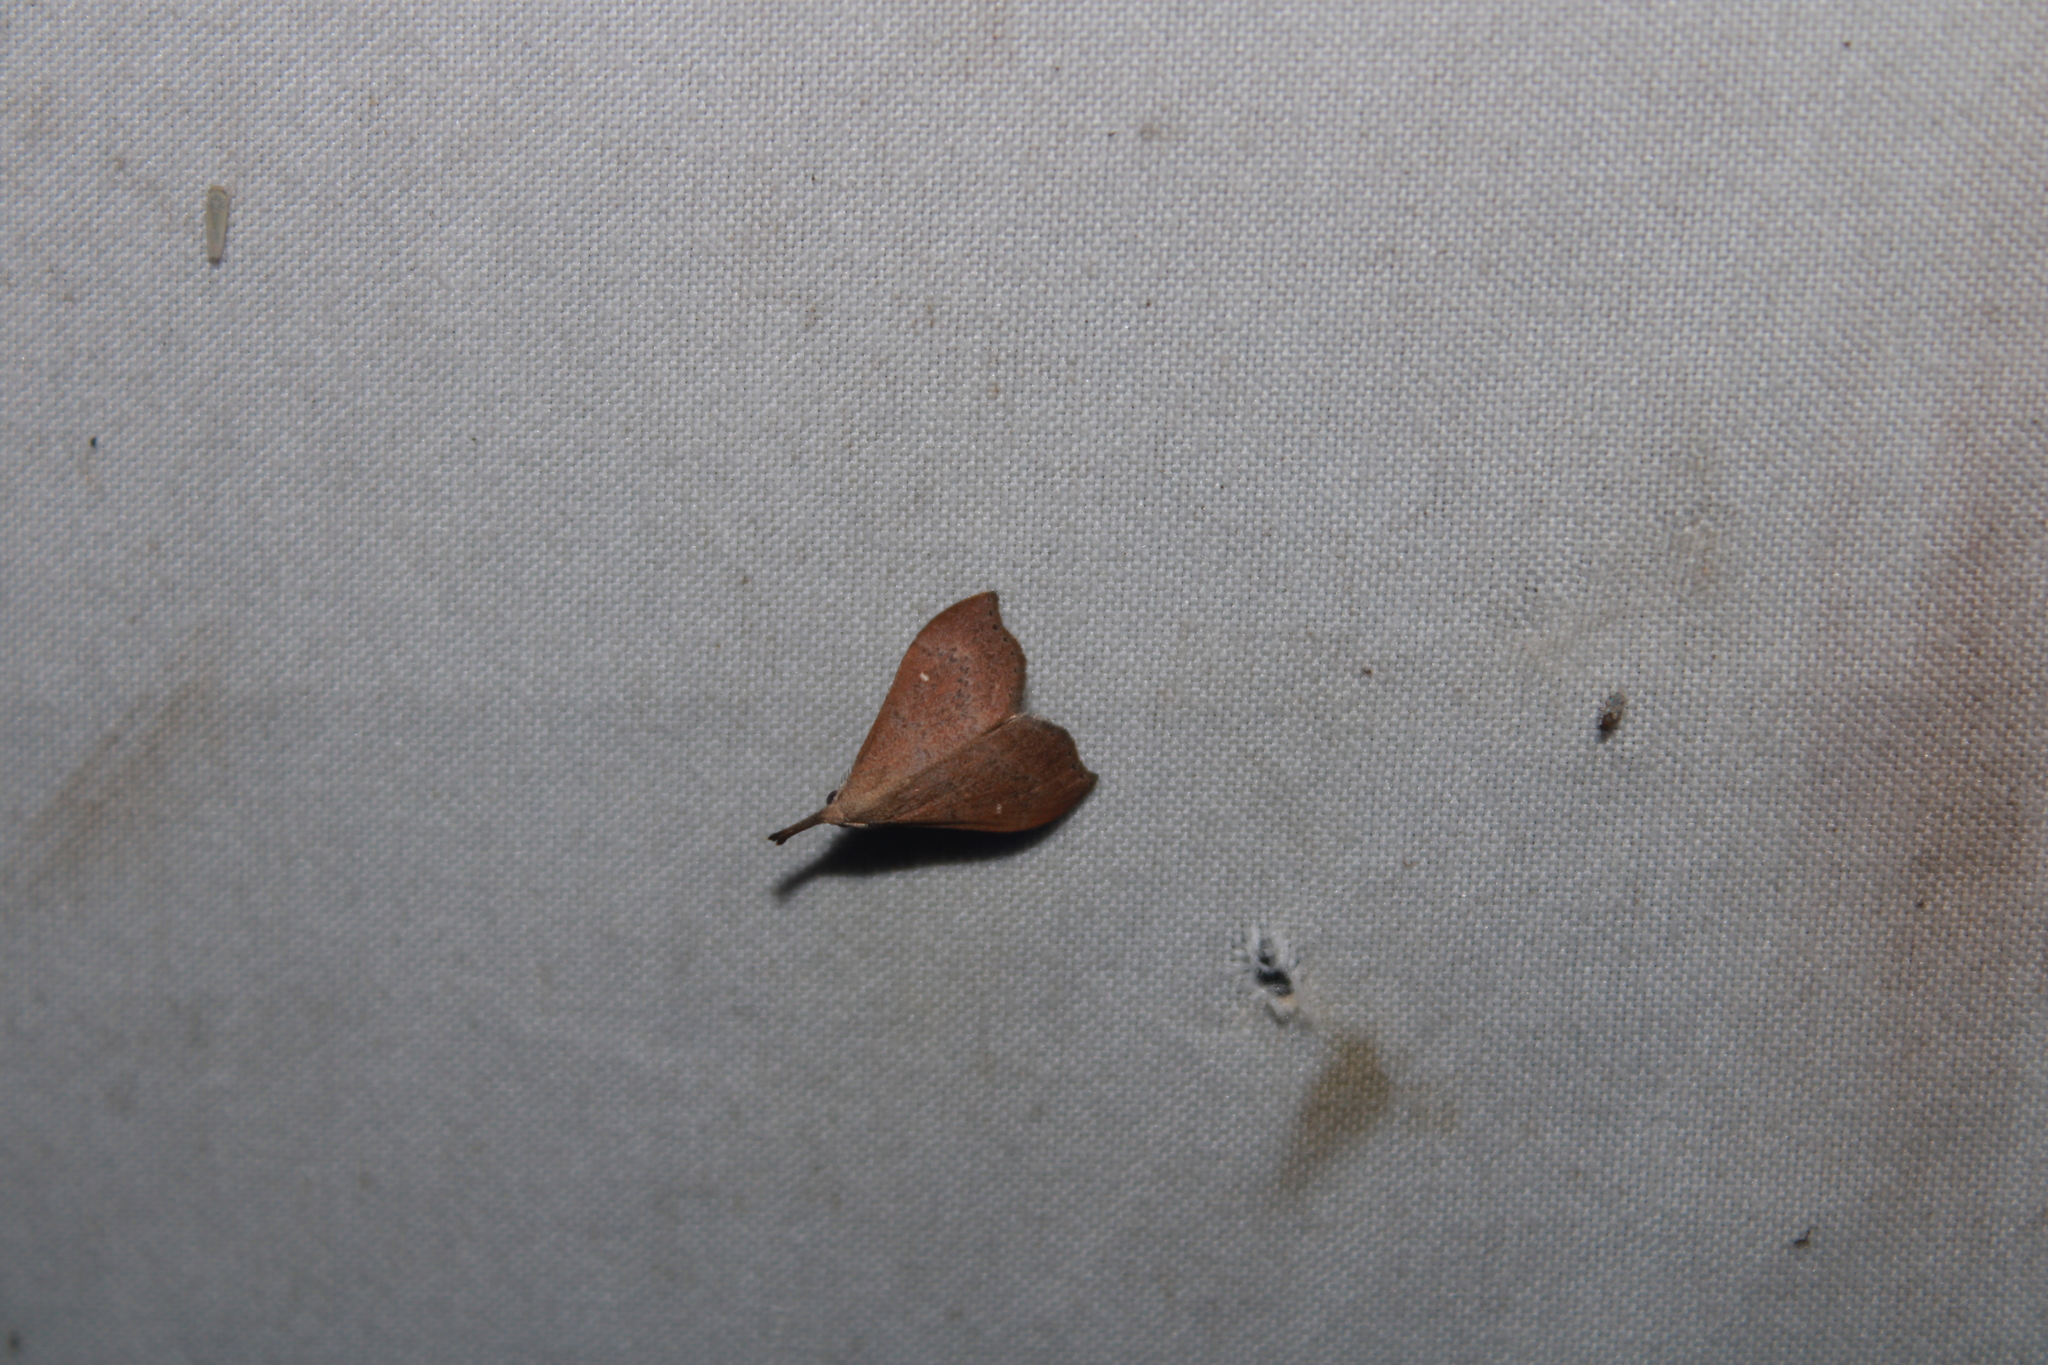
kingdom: Animalia
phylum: Arthropoda
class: Insecta
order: Lepidoptera
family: Erebidae
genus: Macristis
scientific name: Macristis geminipunctalis
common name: Litter moth
